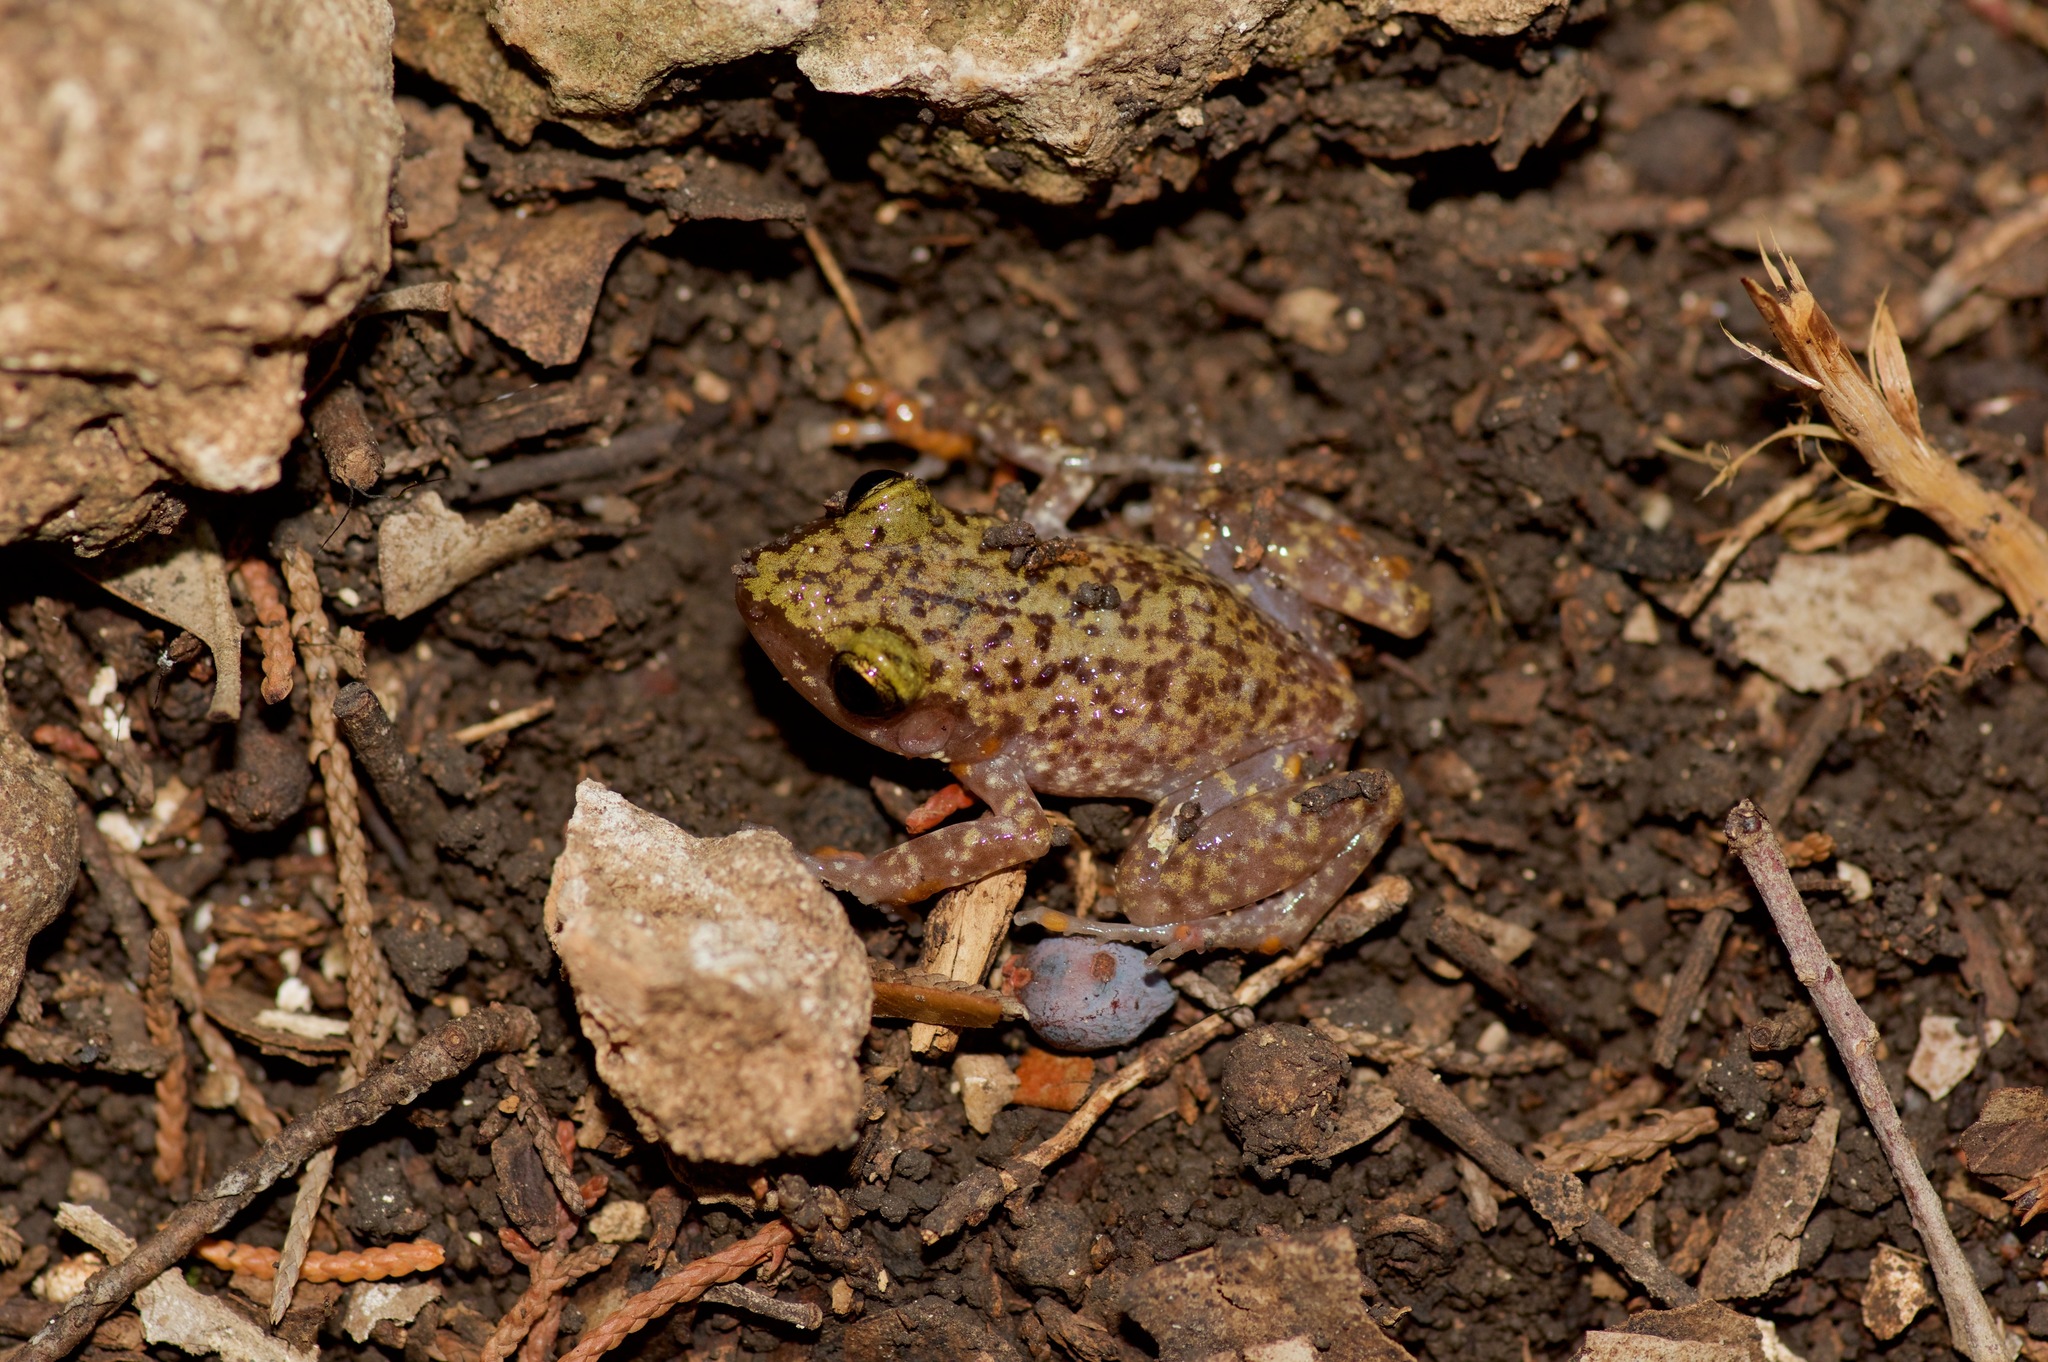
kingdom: Animalia
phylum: Chordata
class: Amphibia
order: Anura
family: Eleutherodactylidae
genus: Eleutherodactylus
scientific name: Eleutherodactylus marnockii
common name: Cliff chirping frog
